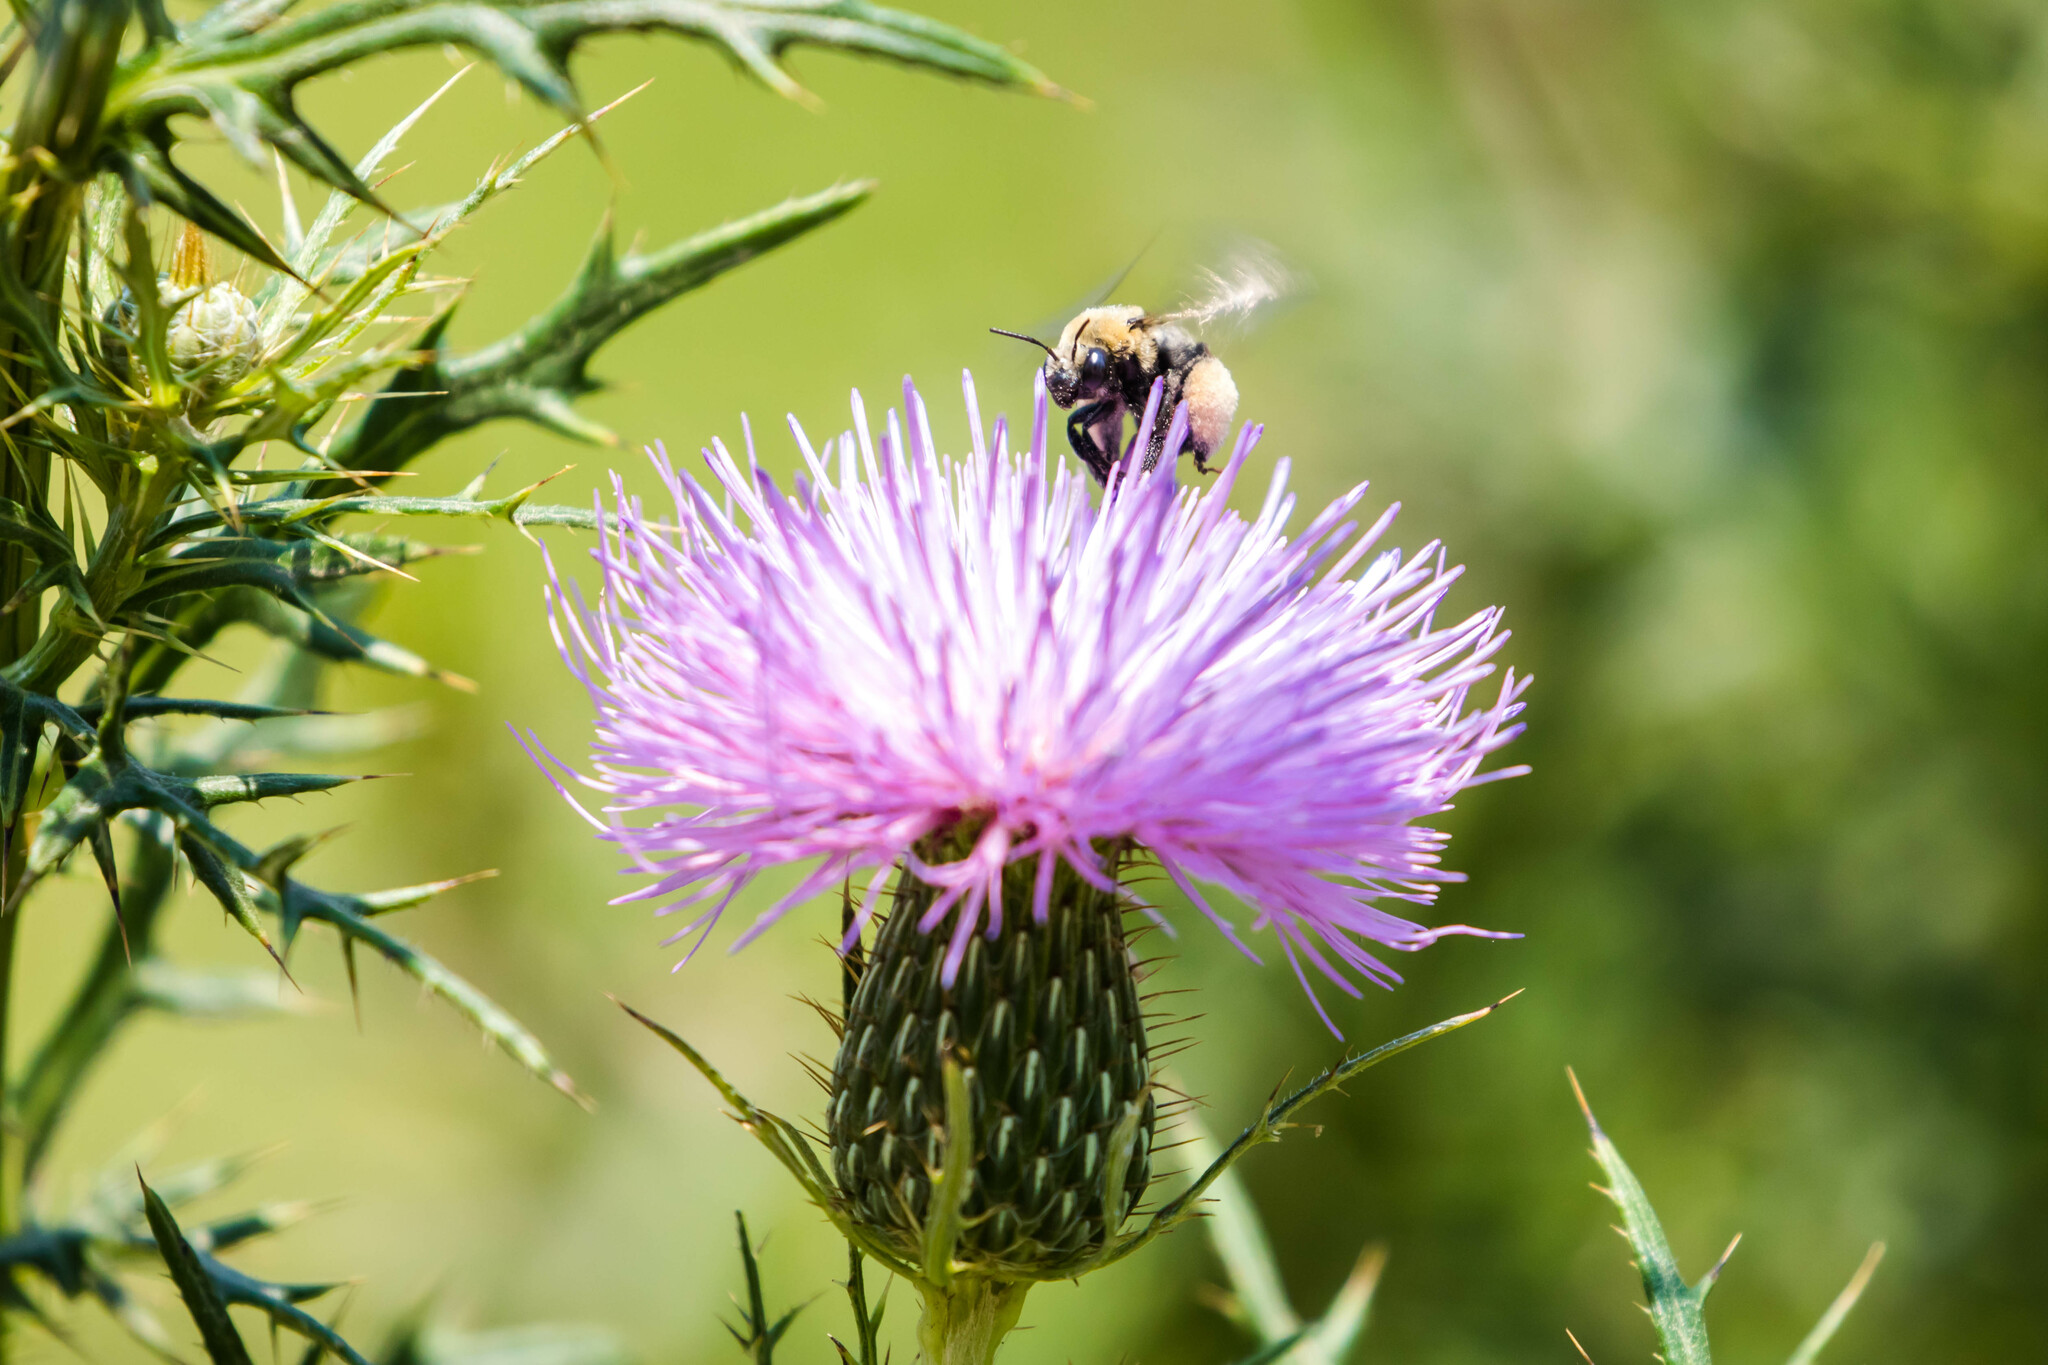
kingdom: Animalia
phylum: Arthropoda
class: Insecta
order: Hymenoptera
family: Apidae
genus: Melissodes
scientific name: Melissodes desponsus
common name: Thistle long-horned bee
